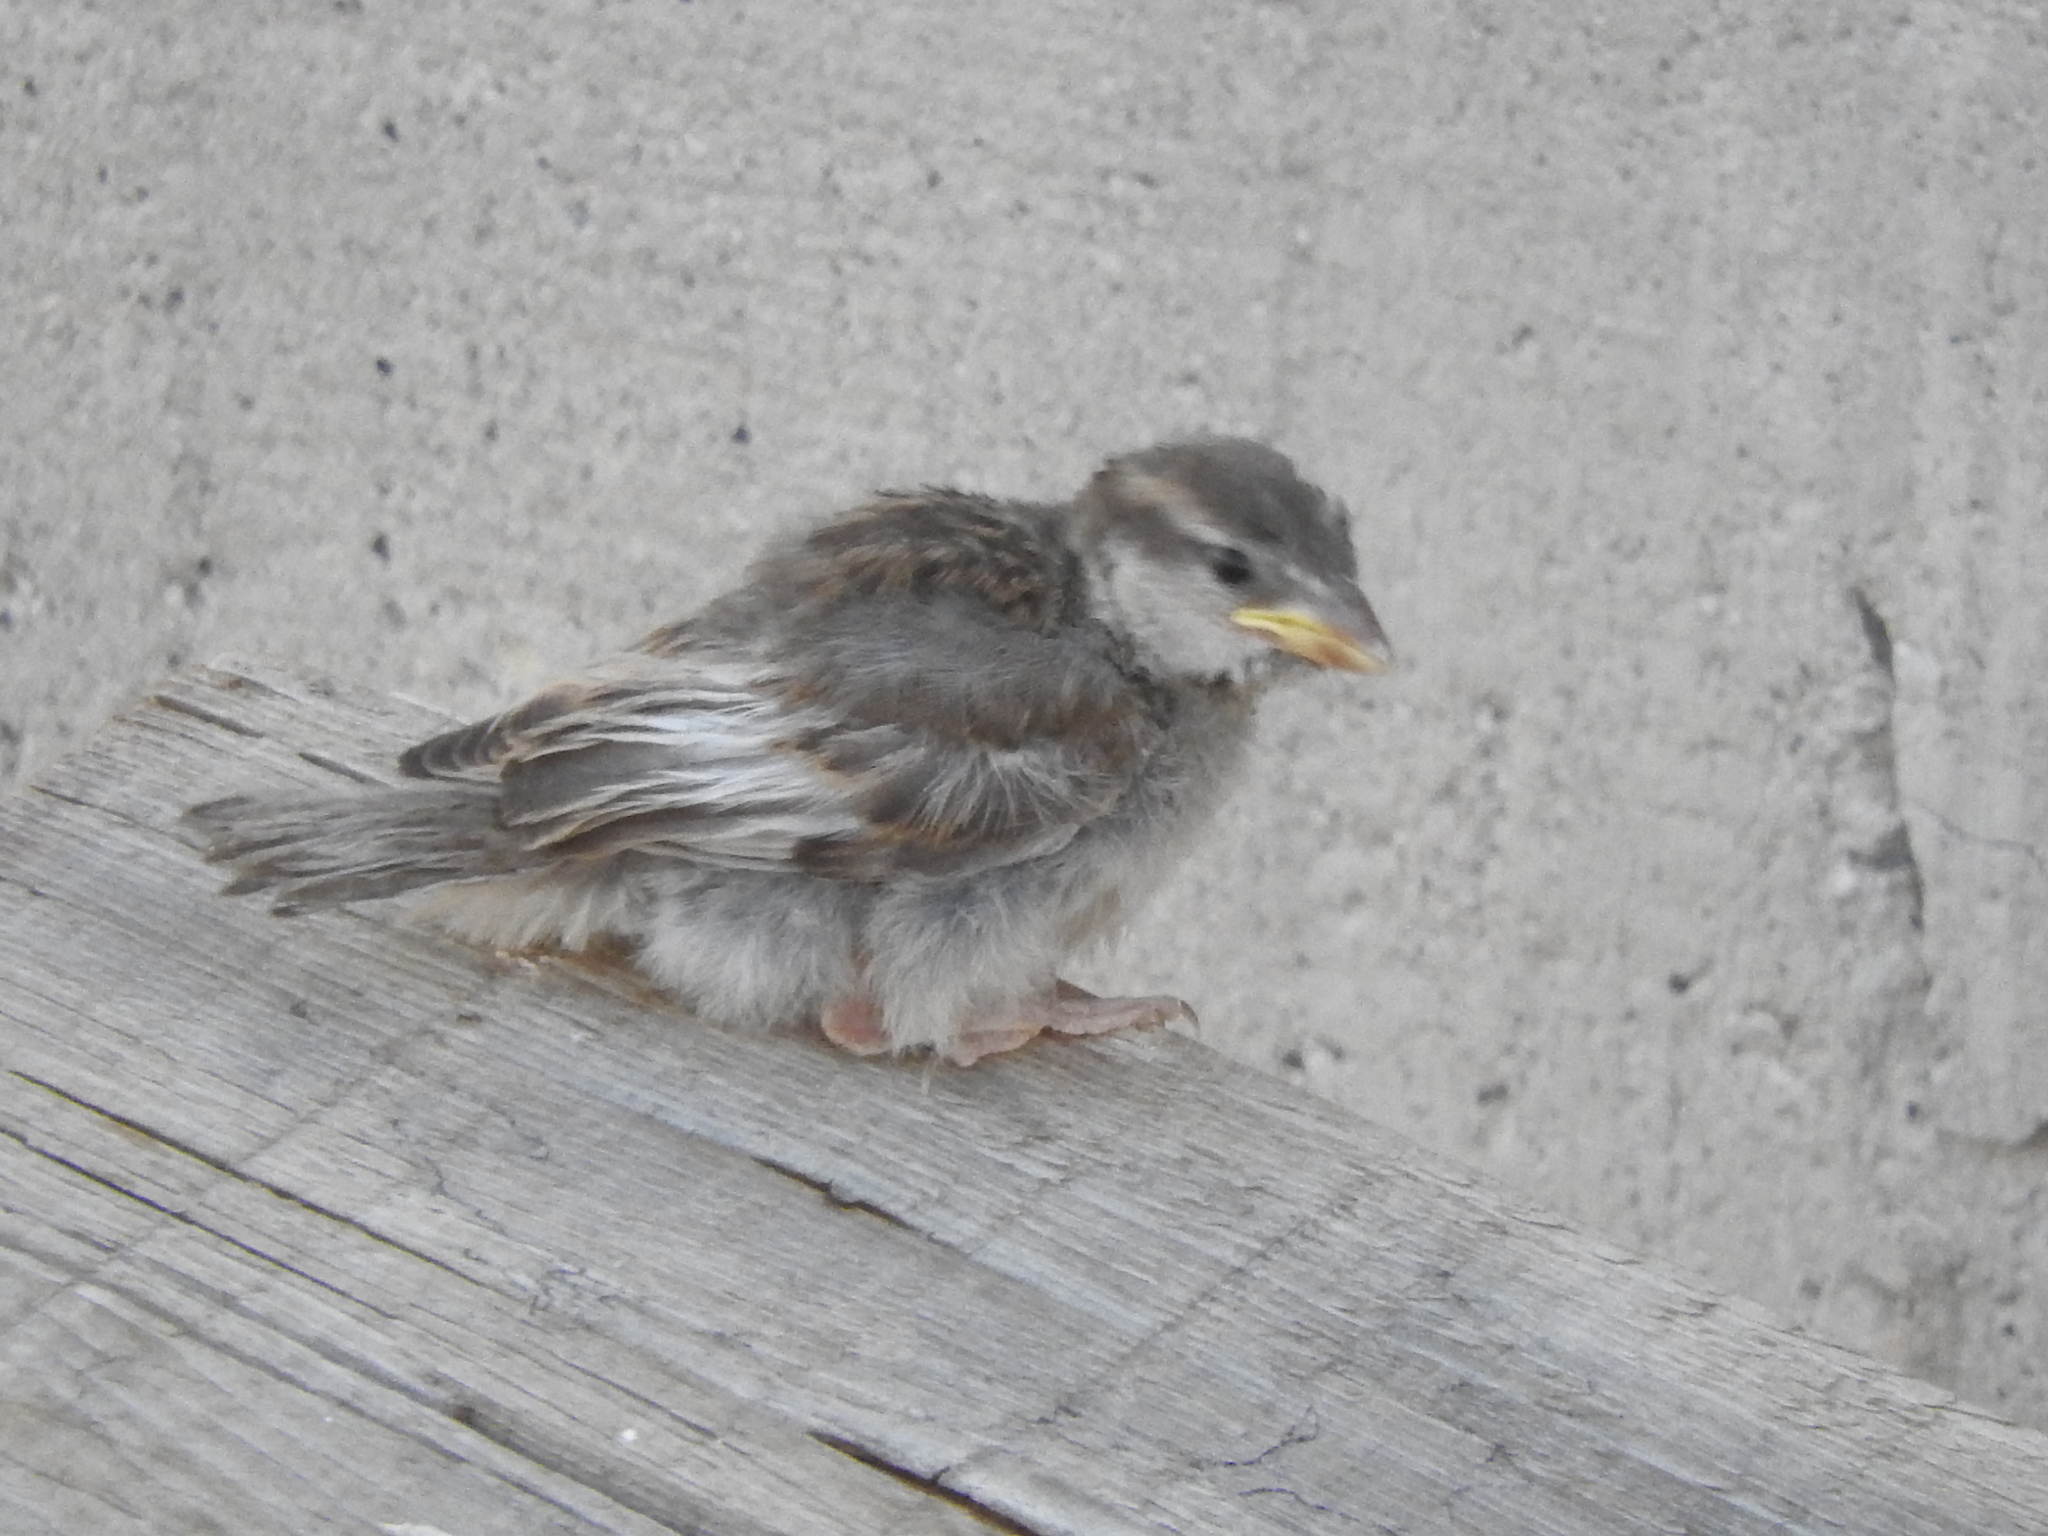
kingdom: Animalia
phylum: Chordata
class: Aves
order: Passeriformes
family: Passeridae
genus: Passer
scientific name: Passer domesticus
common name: House sparrow
